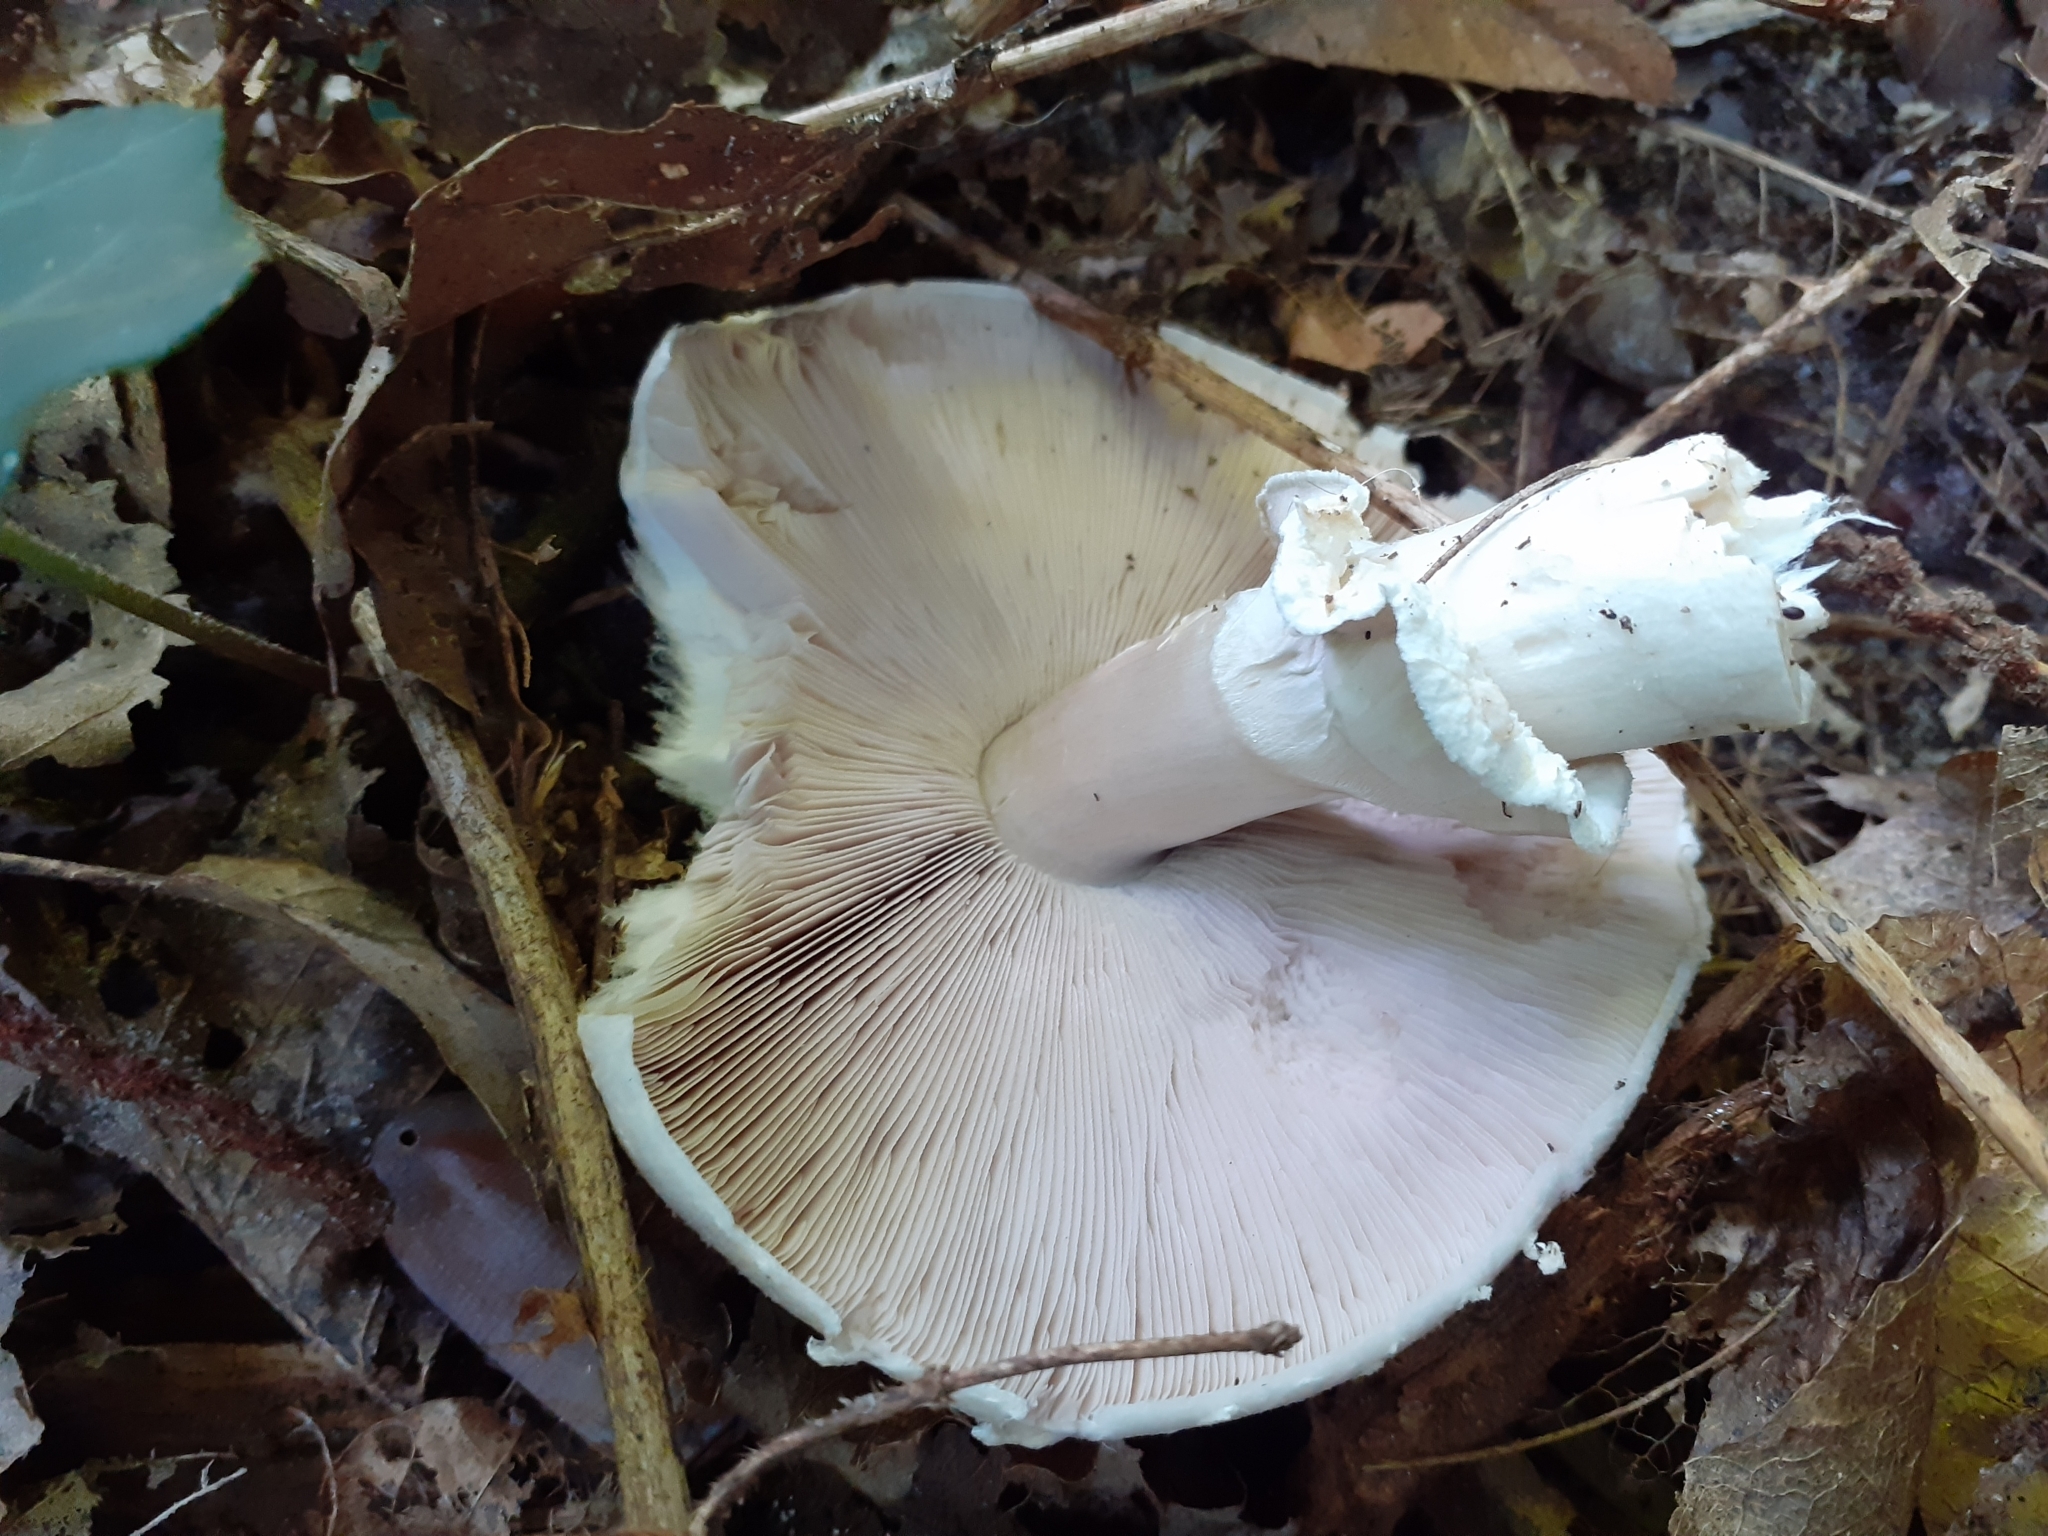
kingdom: Fungi
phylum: Basidiomycota
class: Agaricomycetes
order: Agaricales
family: Agaricaceae
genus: Agaricus
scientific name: Agaricus sylvicola
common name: Wood mushroom
